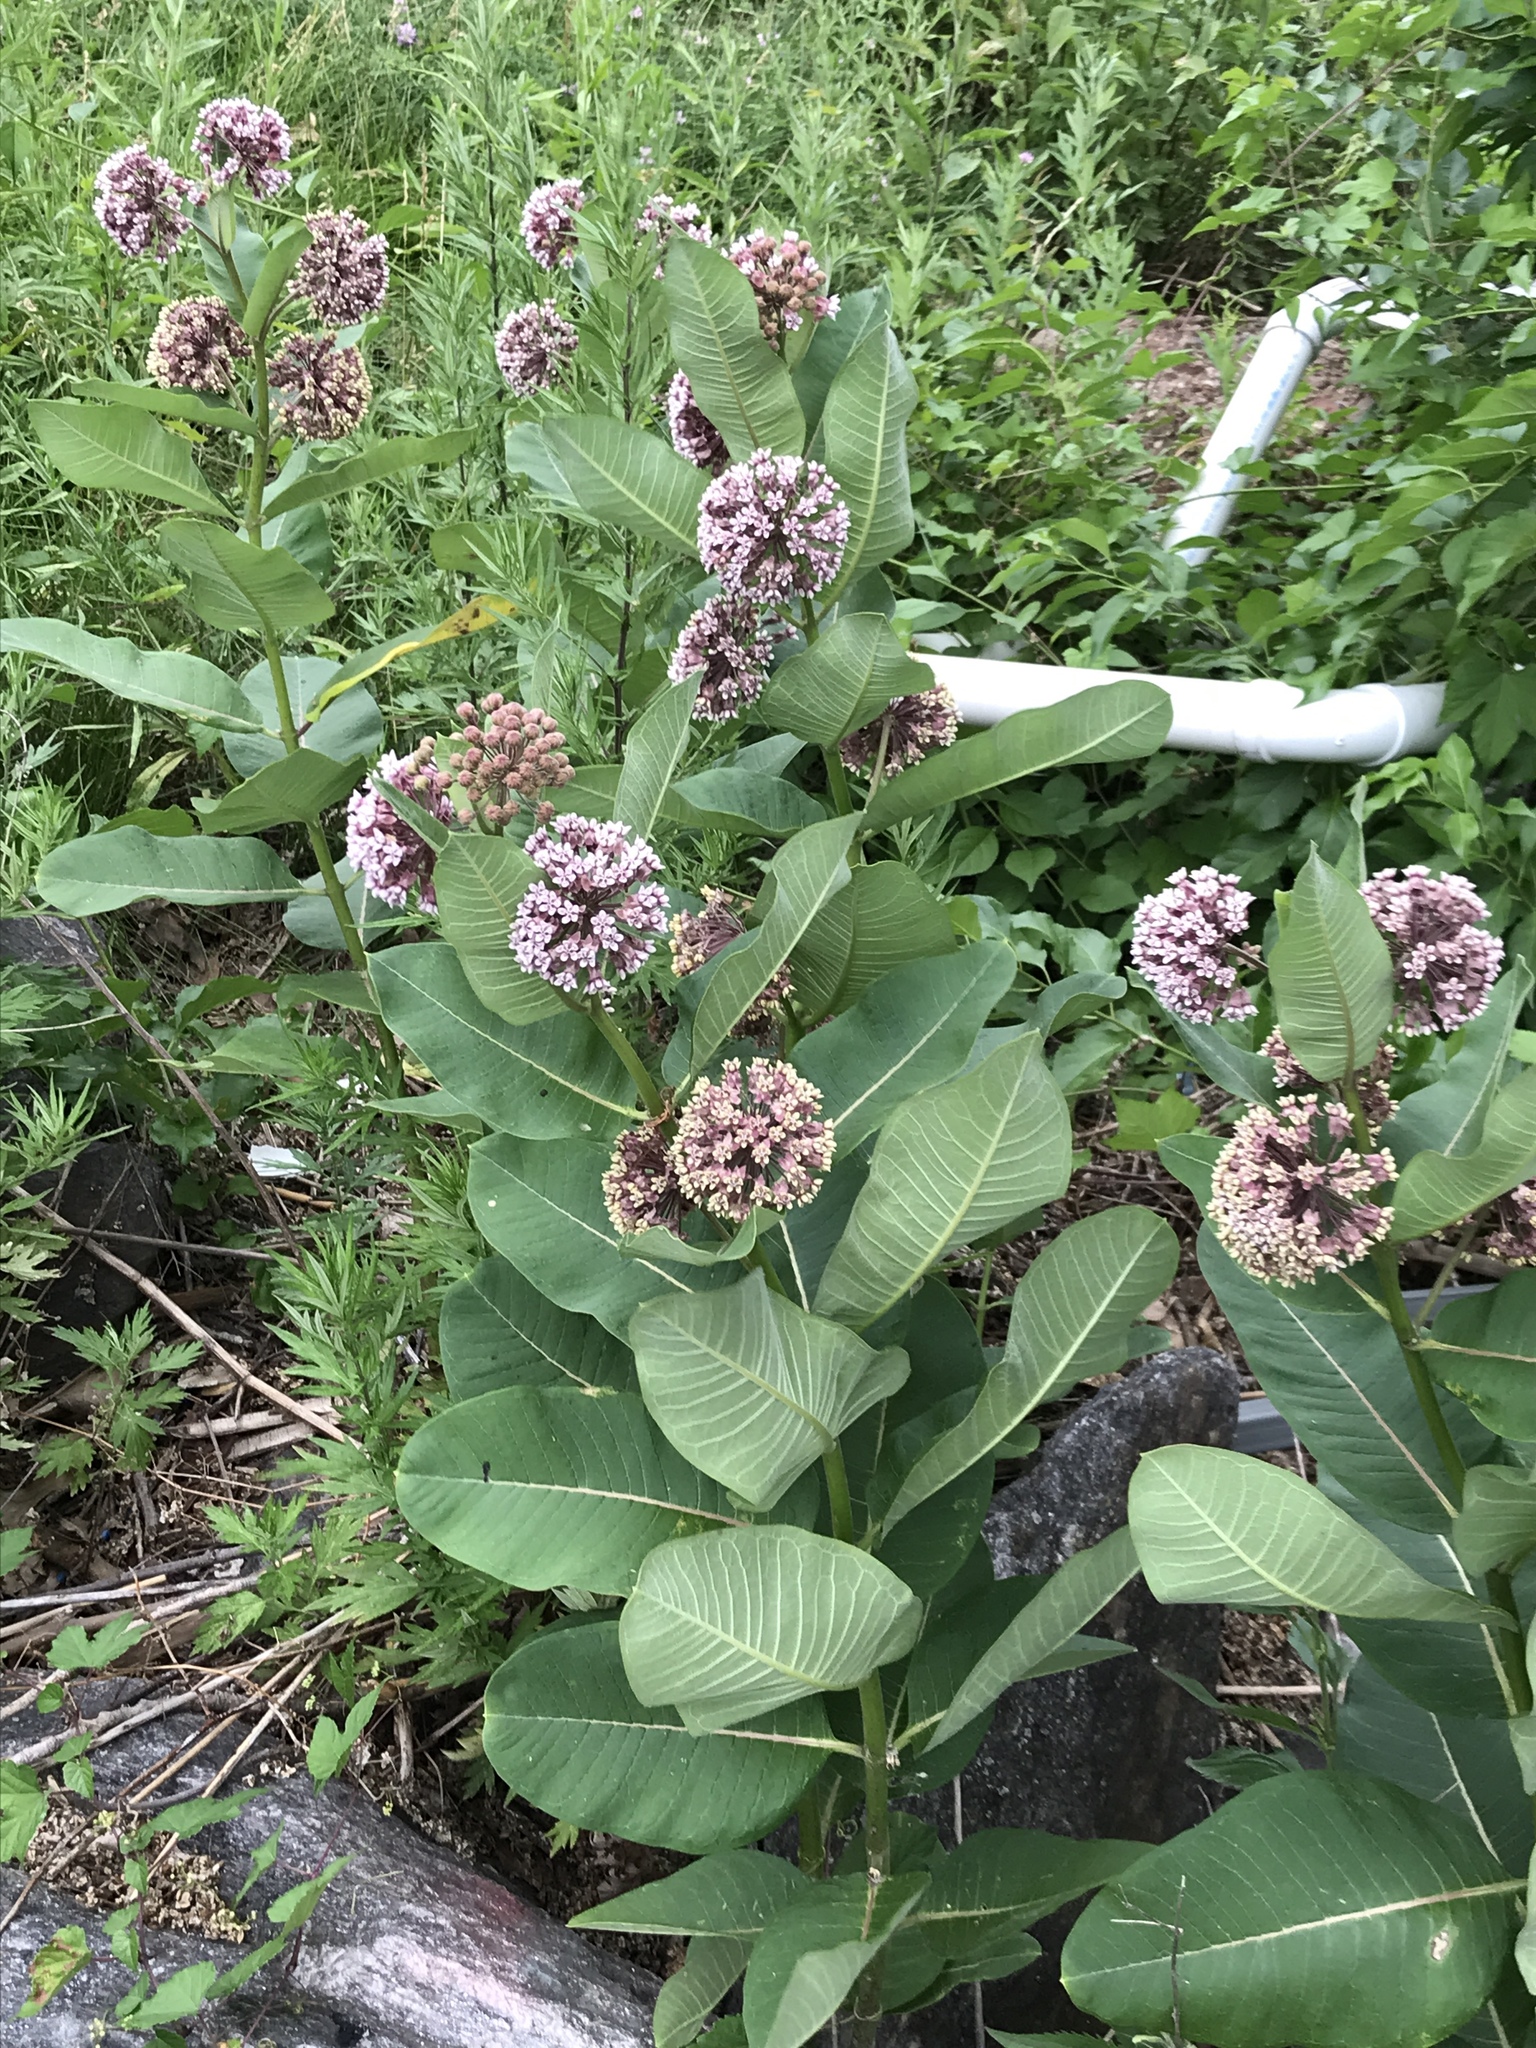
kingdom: Plantae
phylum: Tracheophyta
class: Magnoliopsida
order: Gentianales
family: Apocynaceae
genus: Asclepias
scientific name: Asclepias syriaca
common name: Common milkweed
